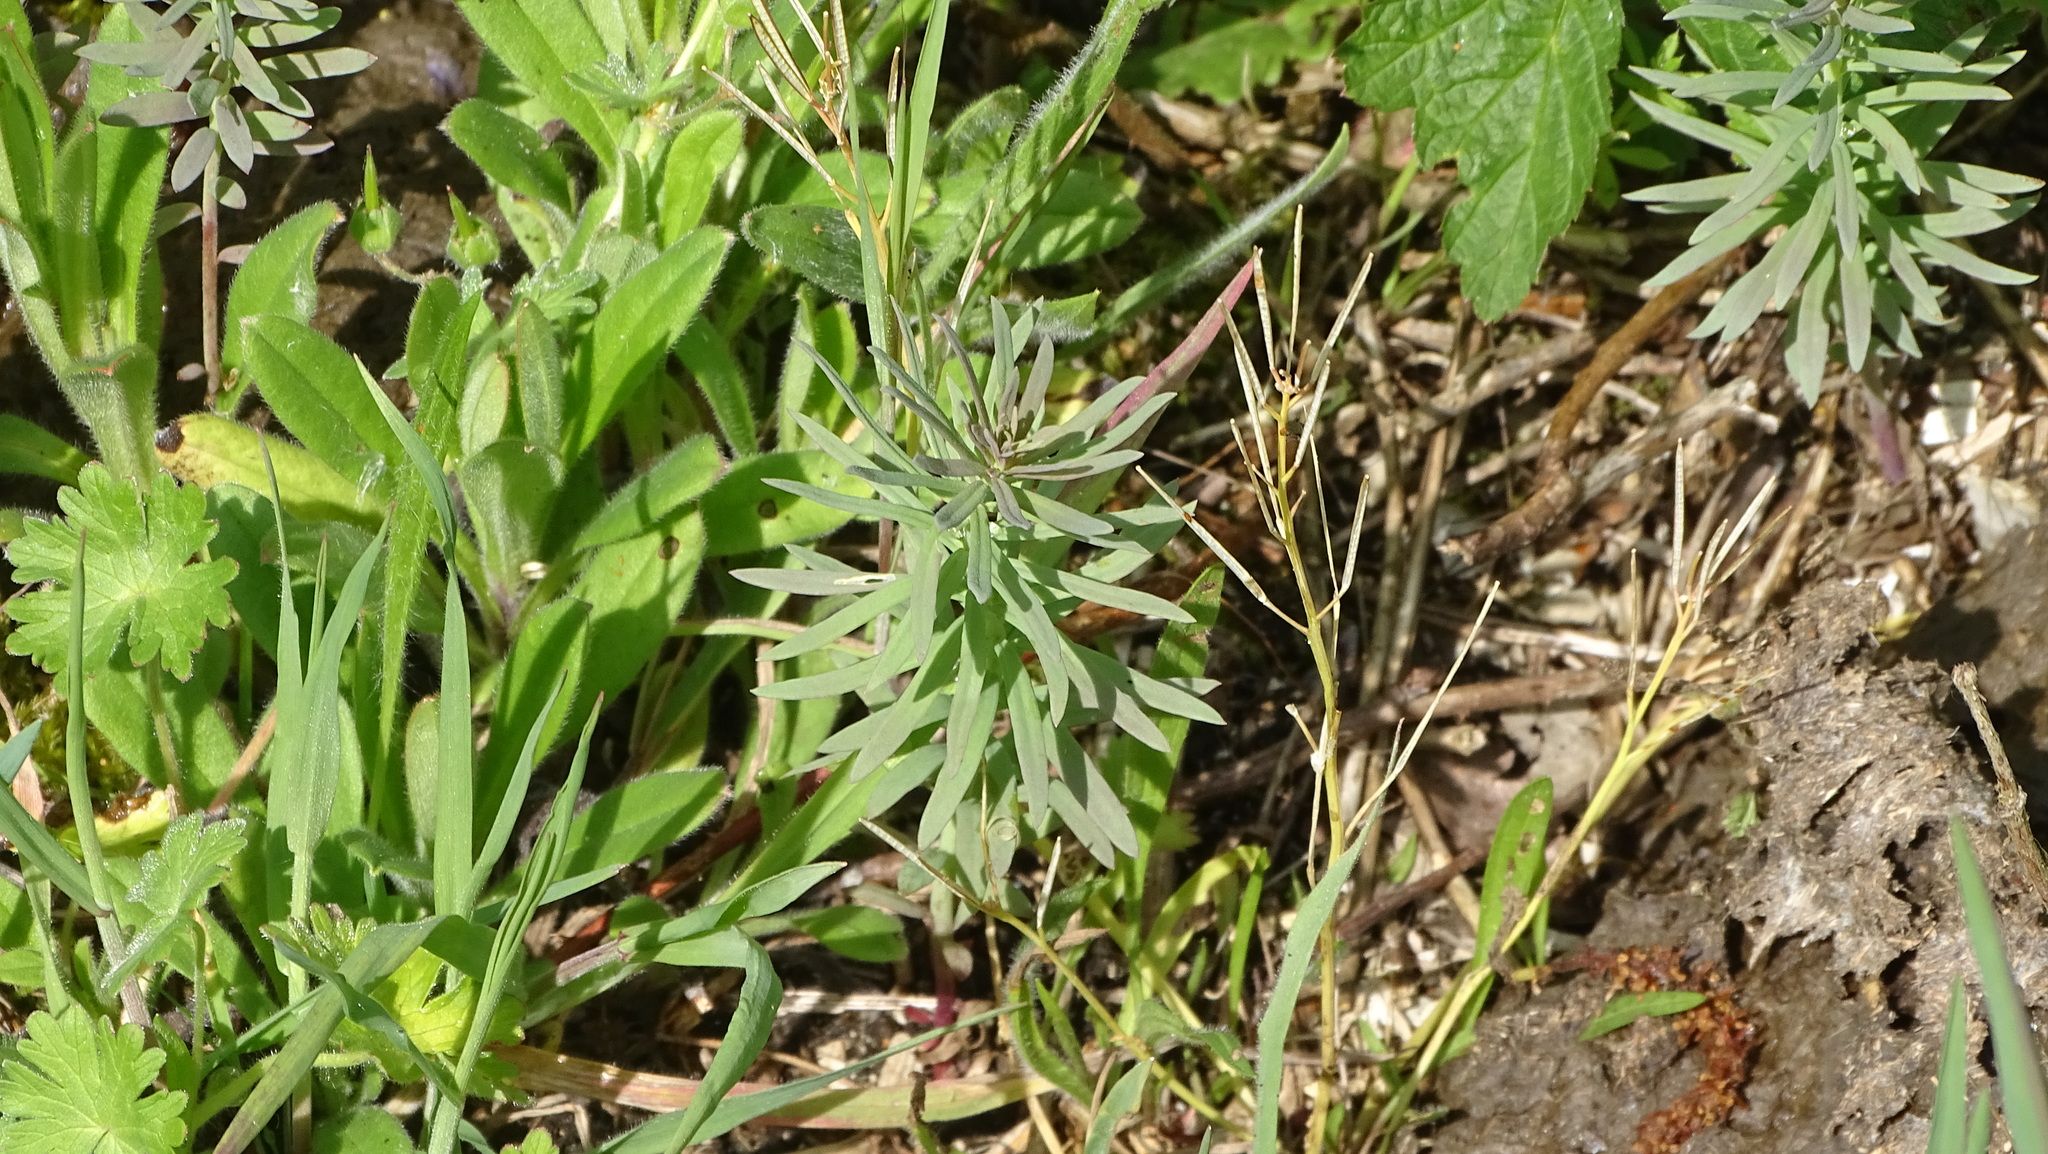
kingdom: Plantae
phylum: Tracheophyta
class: Magnoliopsida
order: Lamiales
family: Plantaginaceae
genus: Linaria
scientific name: Linaria vulgaris
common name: Butter and eggs
